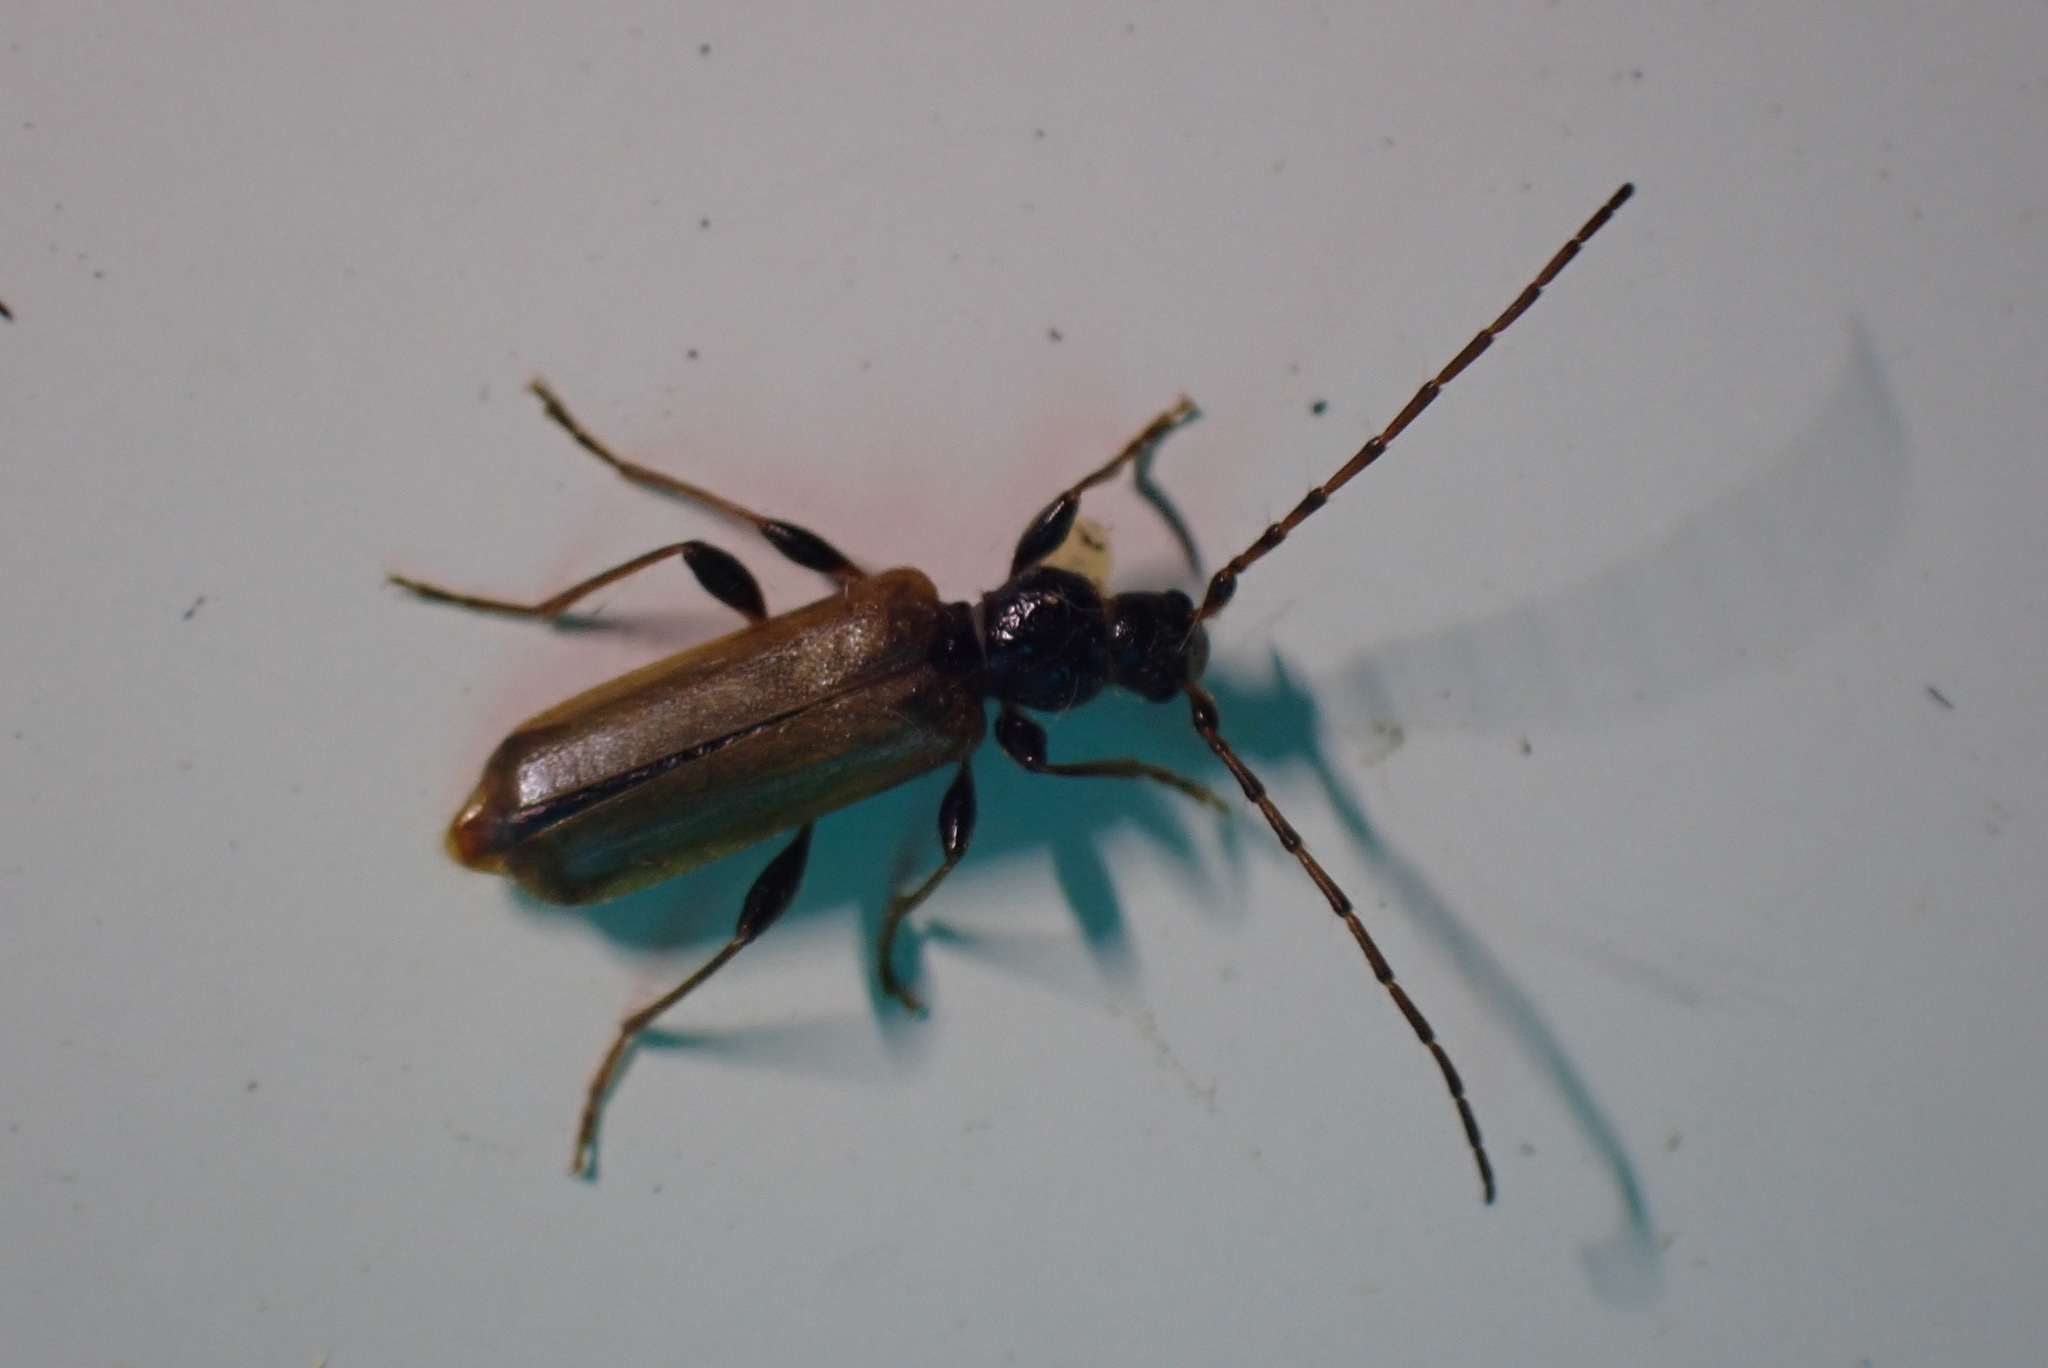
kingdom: Animalia
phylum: Arthropoda
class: Insecta
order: Coleoptera
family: Cerambycidae
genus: Phymatodes
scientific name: Phymatodes testaceus
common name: Long-horned beetle
